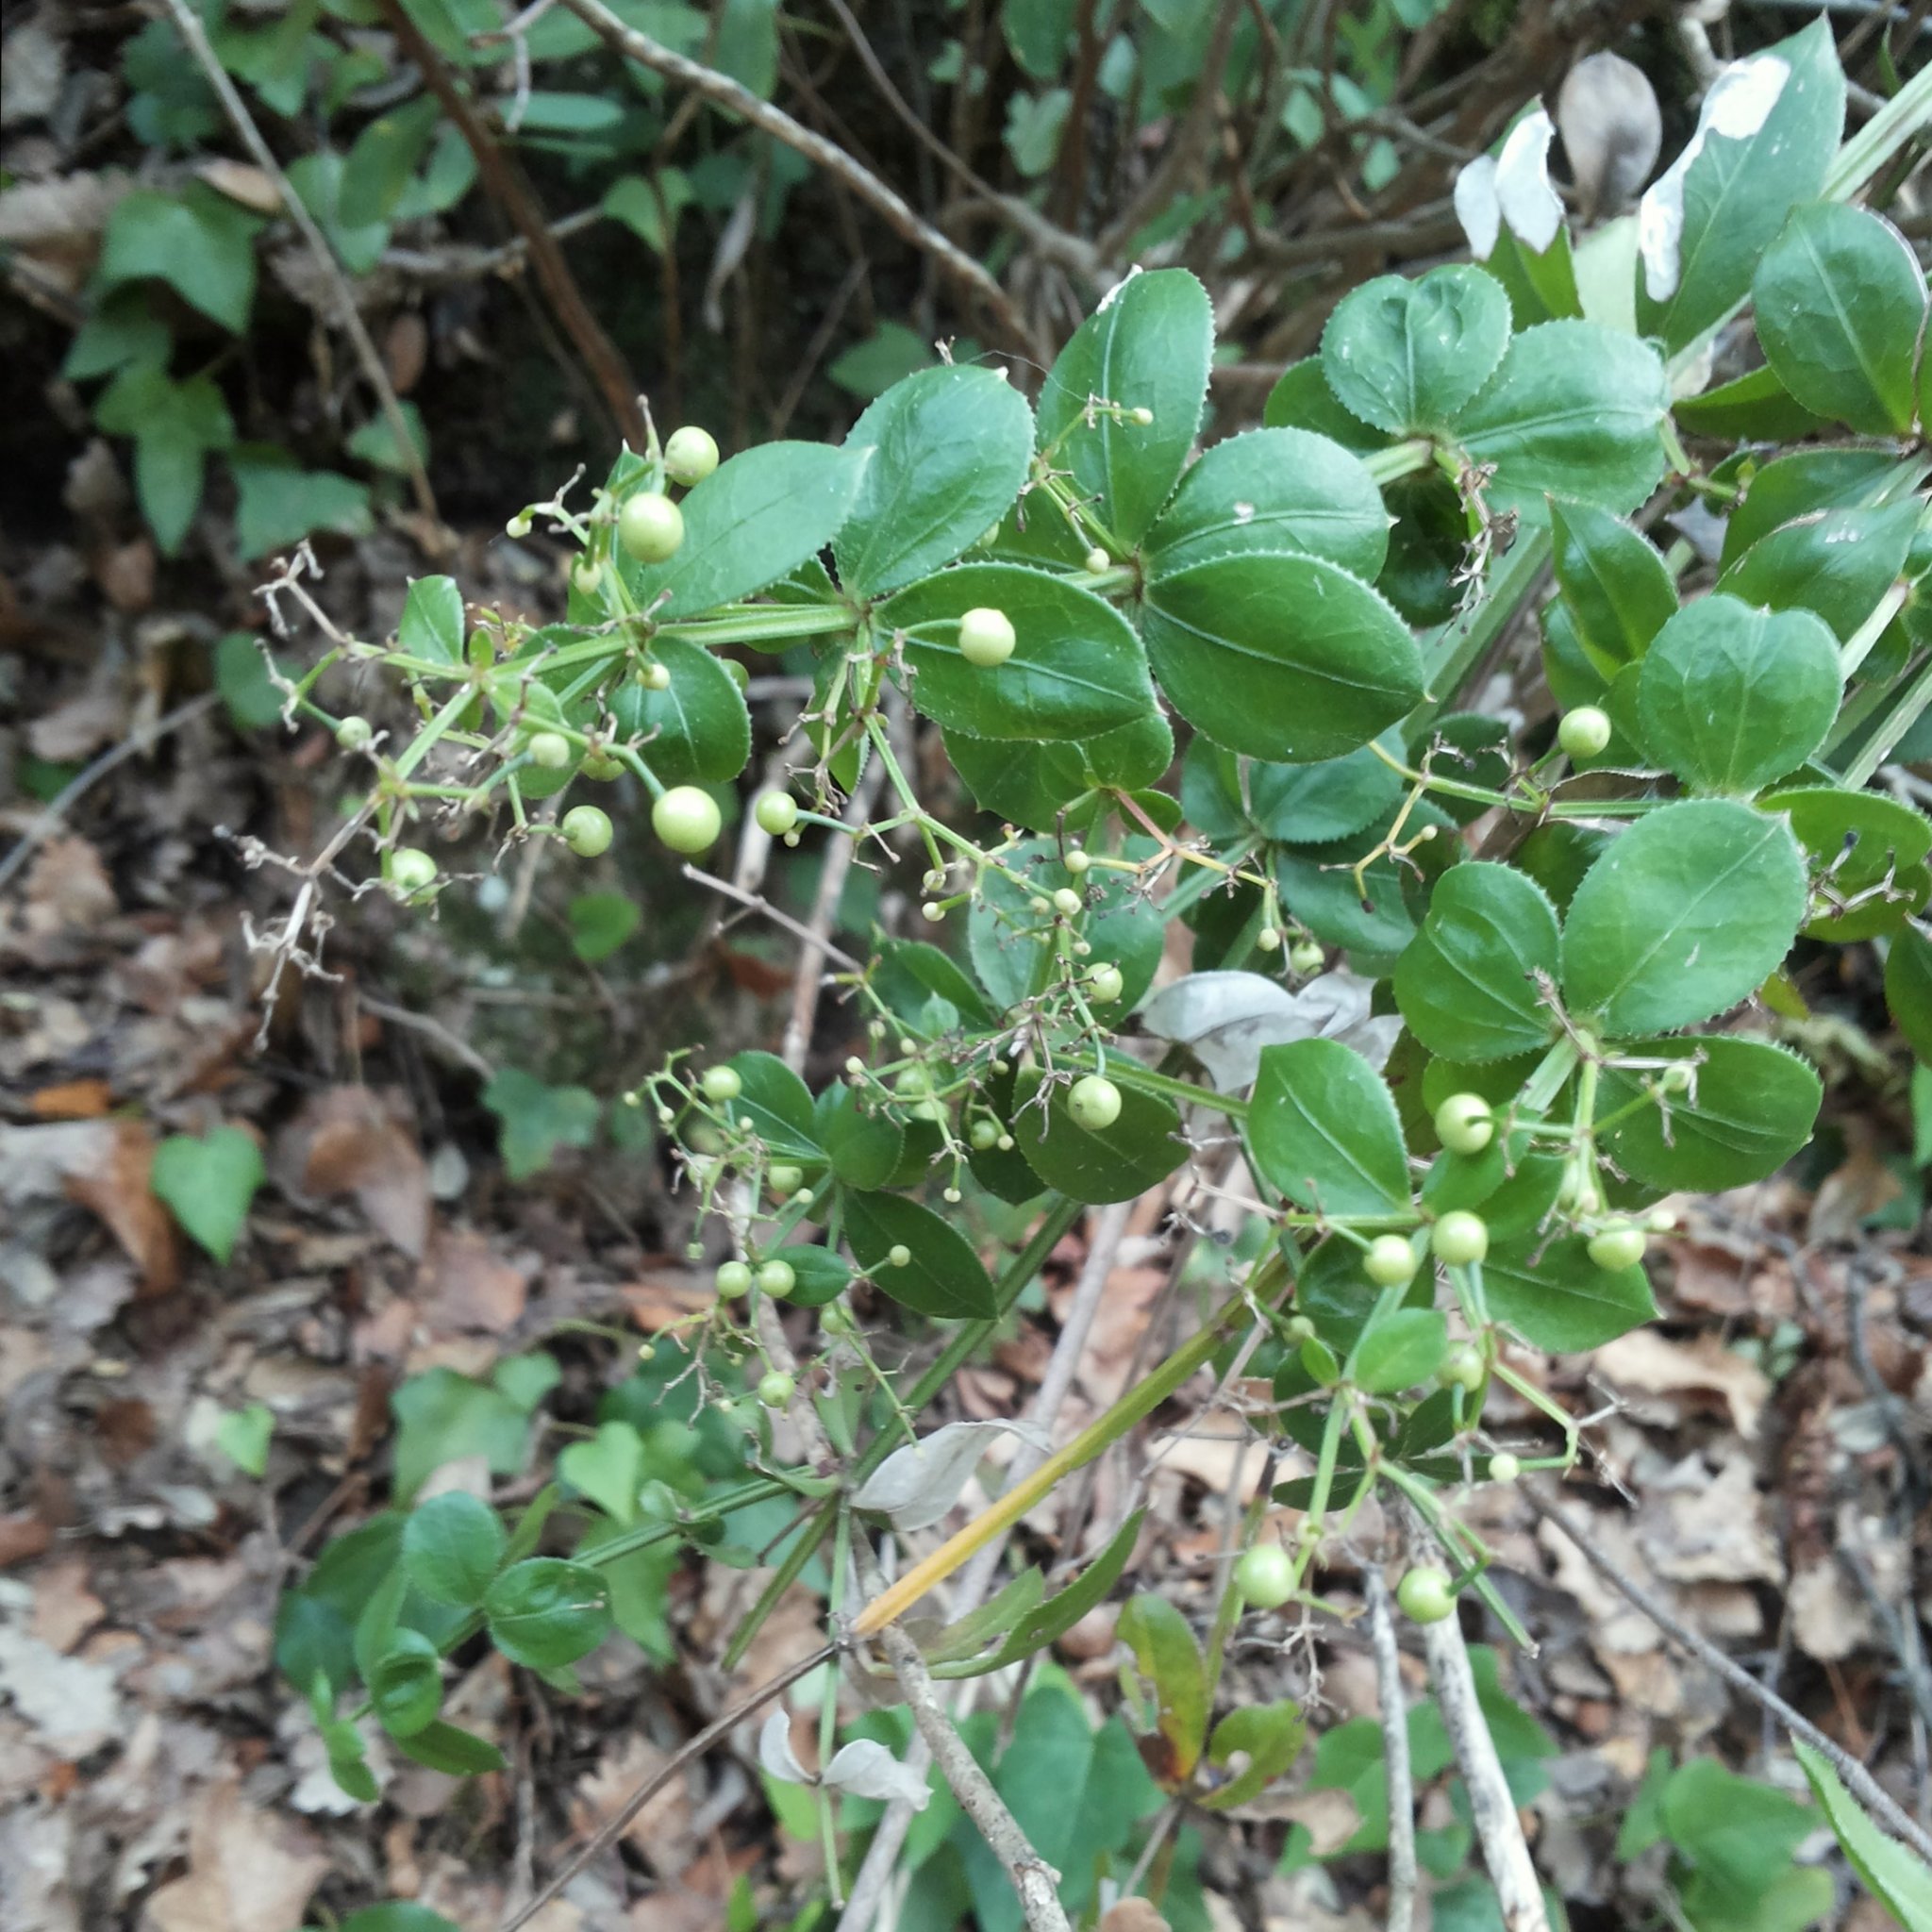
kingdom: Plantae
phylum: Tracheophyta
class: Magnoliopsida
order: Gentianales
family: Rubiaceae
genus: Rubia
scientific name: Rubia peregrina
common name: Wild madder
